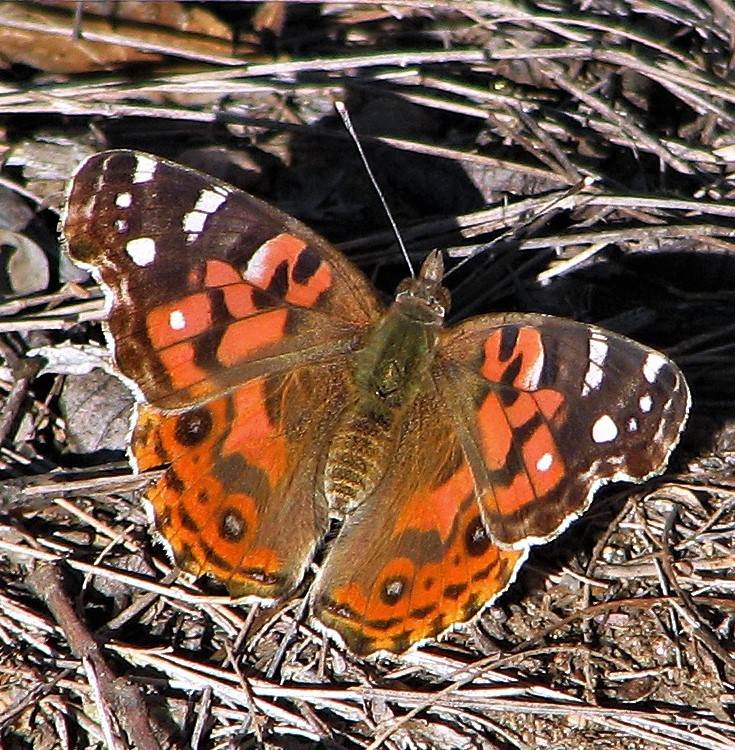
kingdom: Animalia
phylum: Arthropoda
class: Insecta
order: Lepidoptera
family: Nymphalidae
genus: Vanessa
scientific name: Vanessa braziliensis
